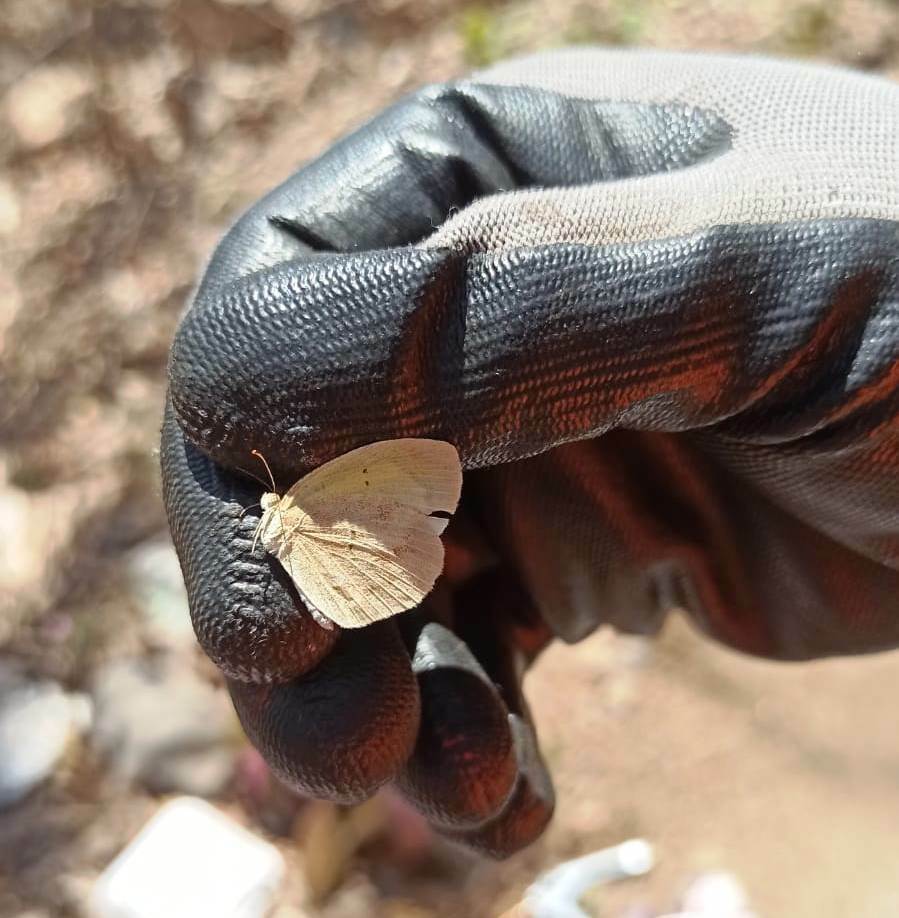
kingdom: Animalia
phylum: Arthropoda
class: Insecta
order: Lepidoptera
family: Pieridae
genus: Eurema
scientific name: Eurema daira
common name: Barred sulphur
